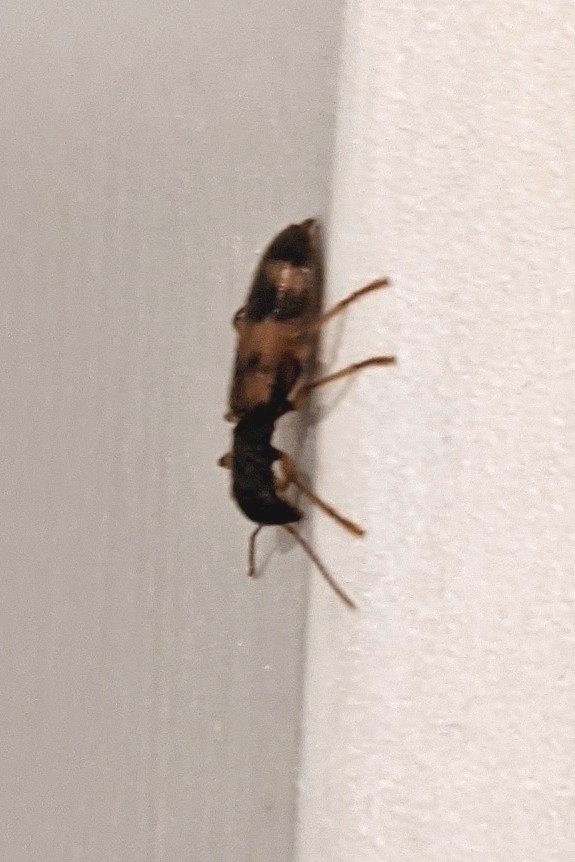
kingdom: Animalia
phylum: Arthropoda
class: Insecta
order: Coleoptera
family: Cleridae
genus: Cymatodera
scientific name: Cymatodera undulata
